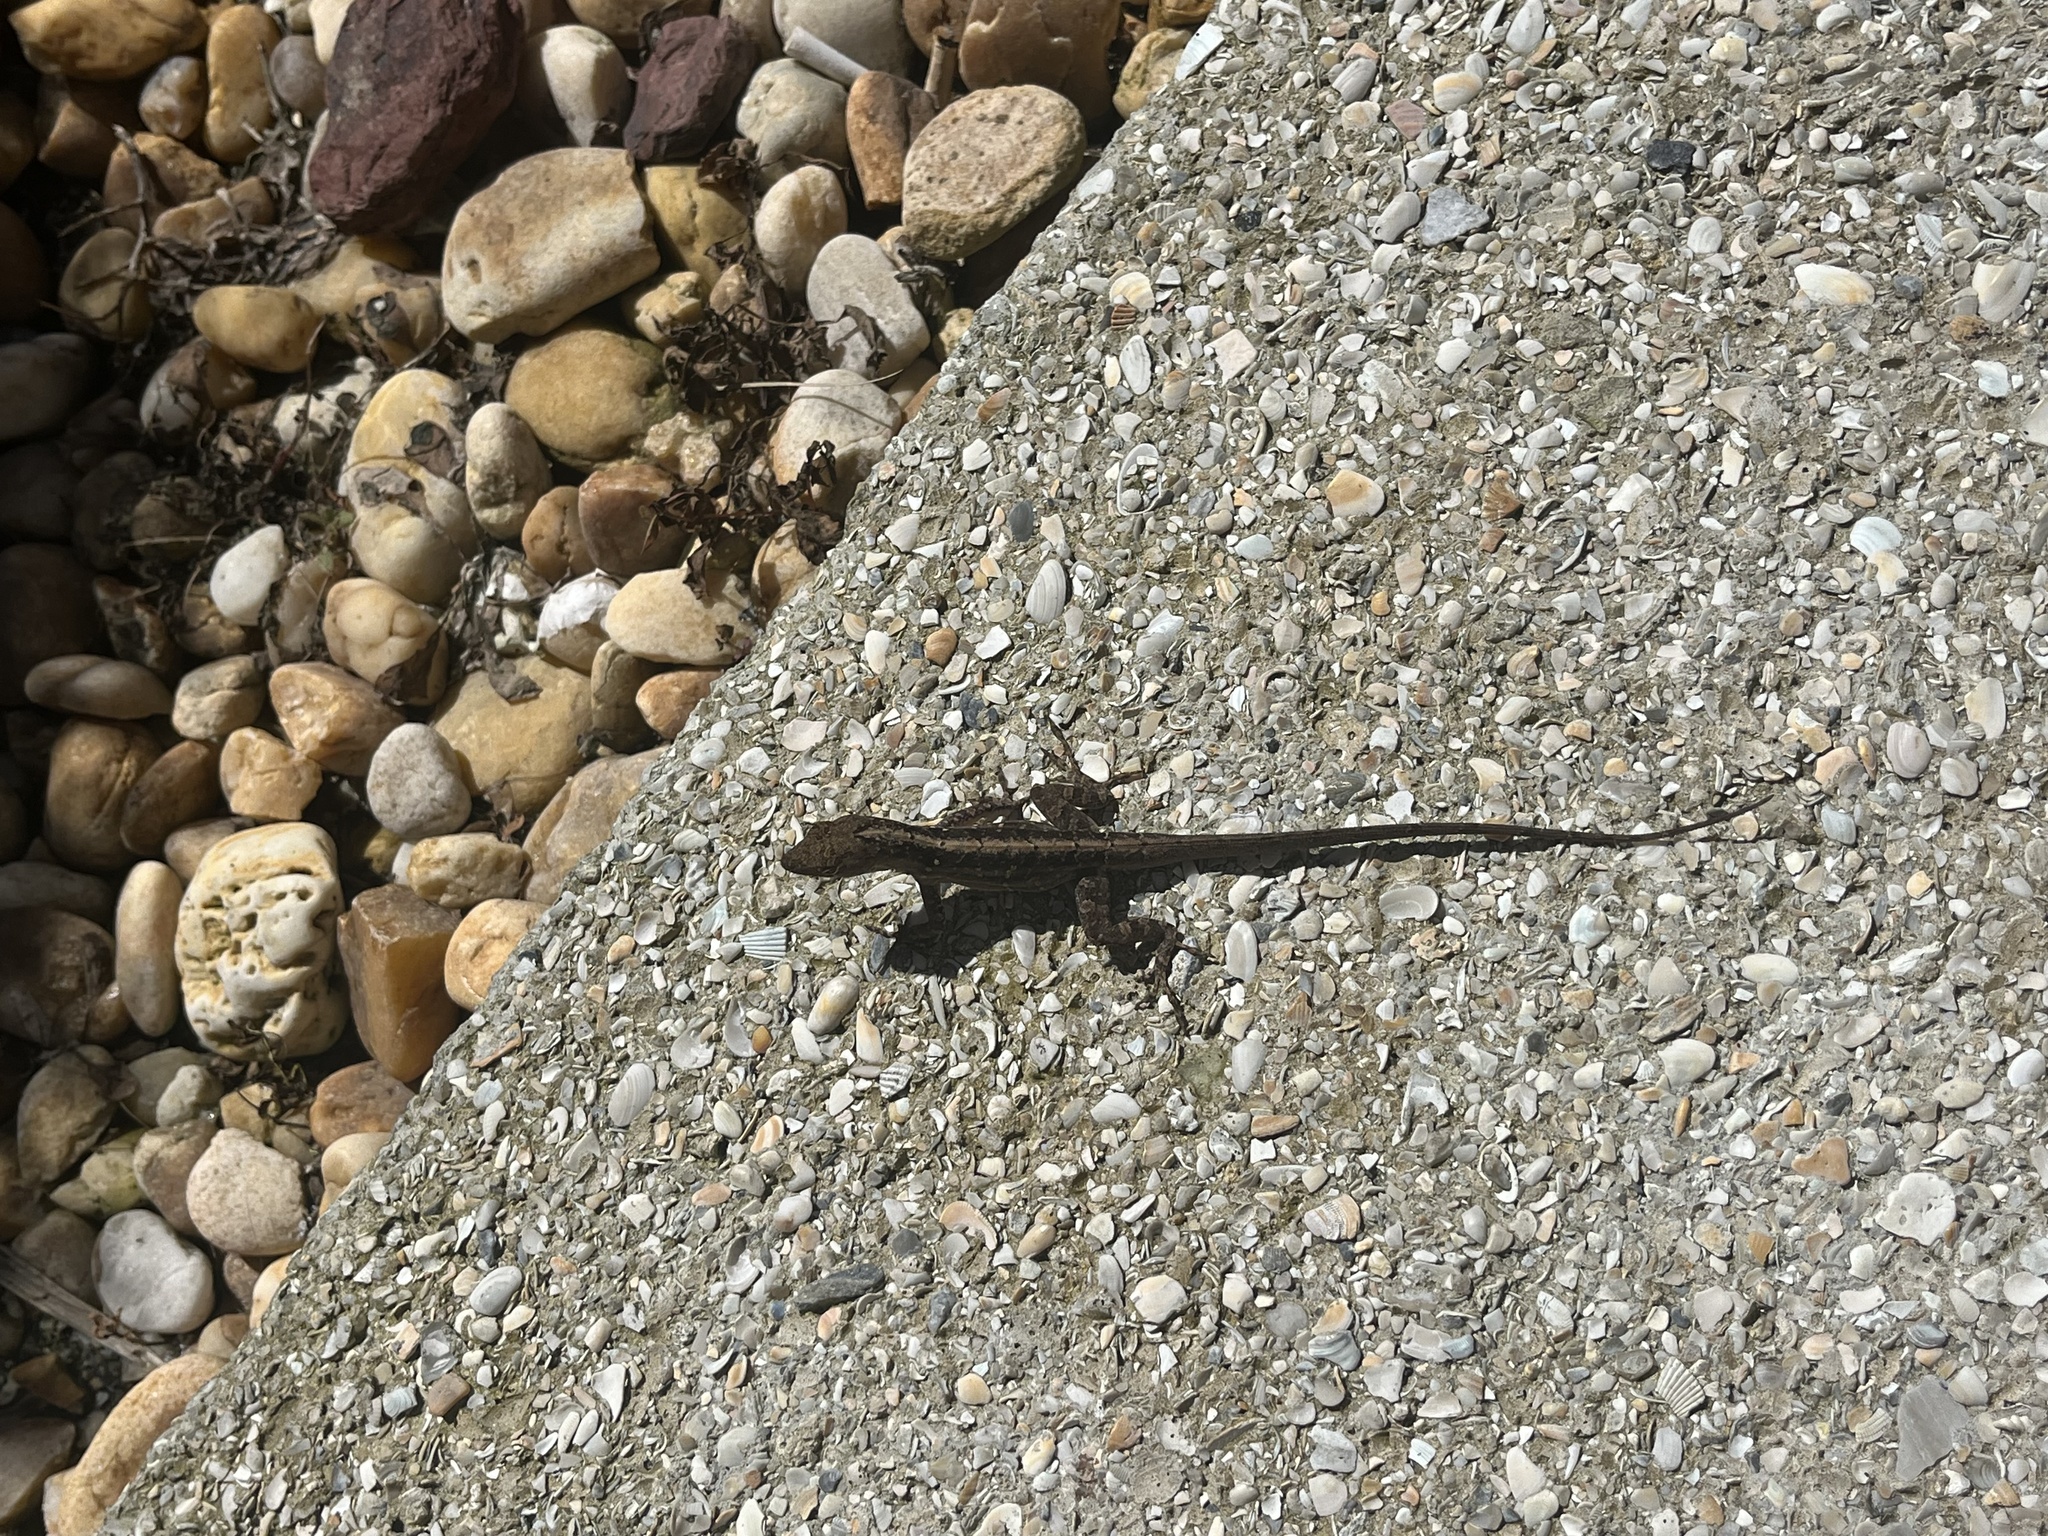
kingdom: Animalia
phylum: Chordata
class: Squamata
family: Dactyloidae
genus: Anolis
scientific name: Anolis sagrei
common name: Brown anole
